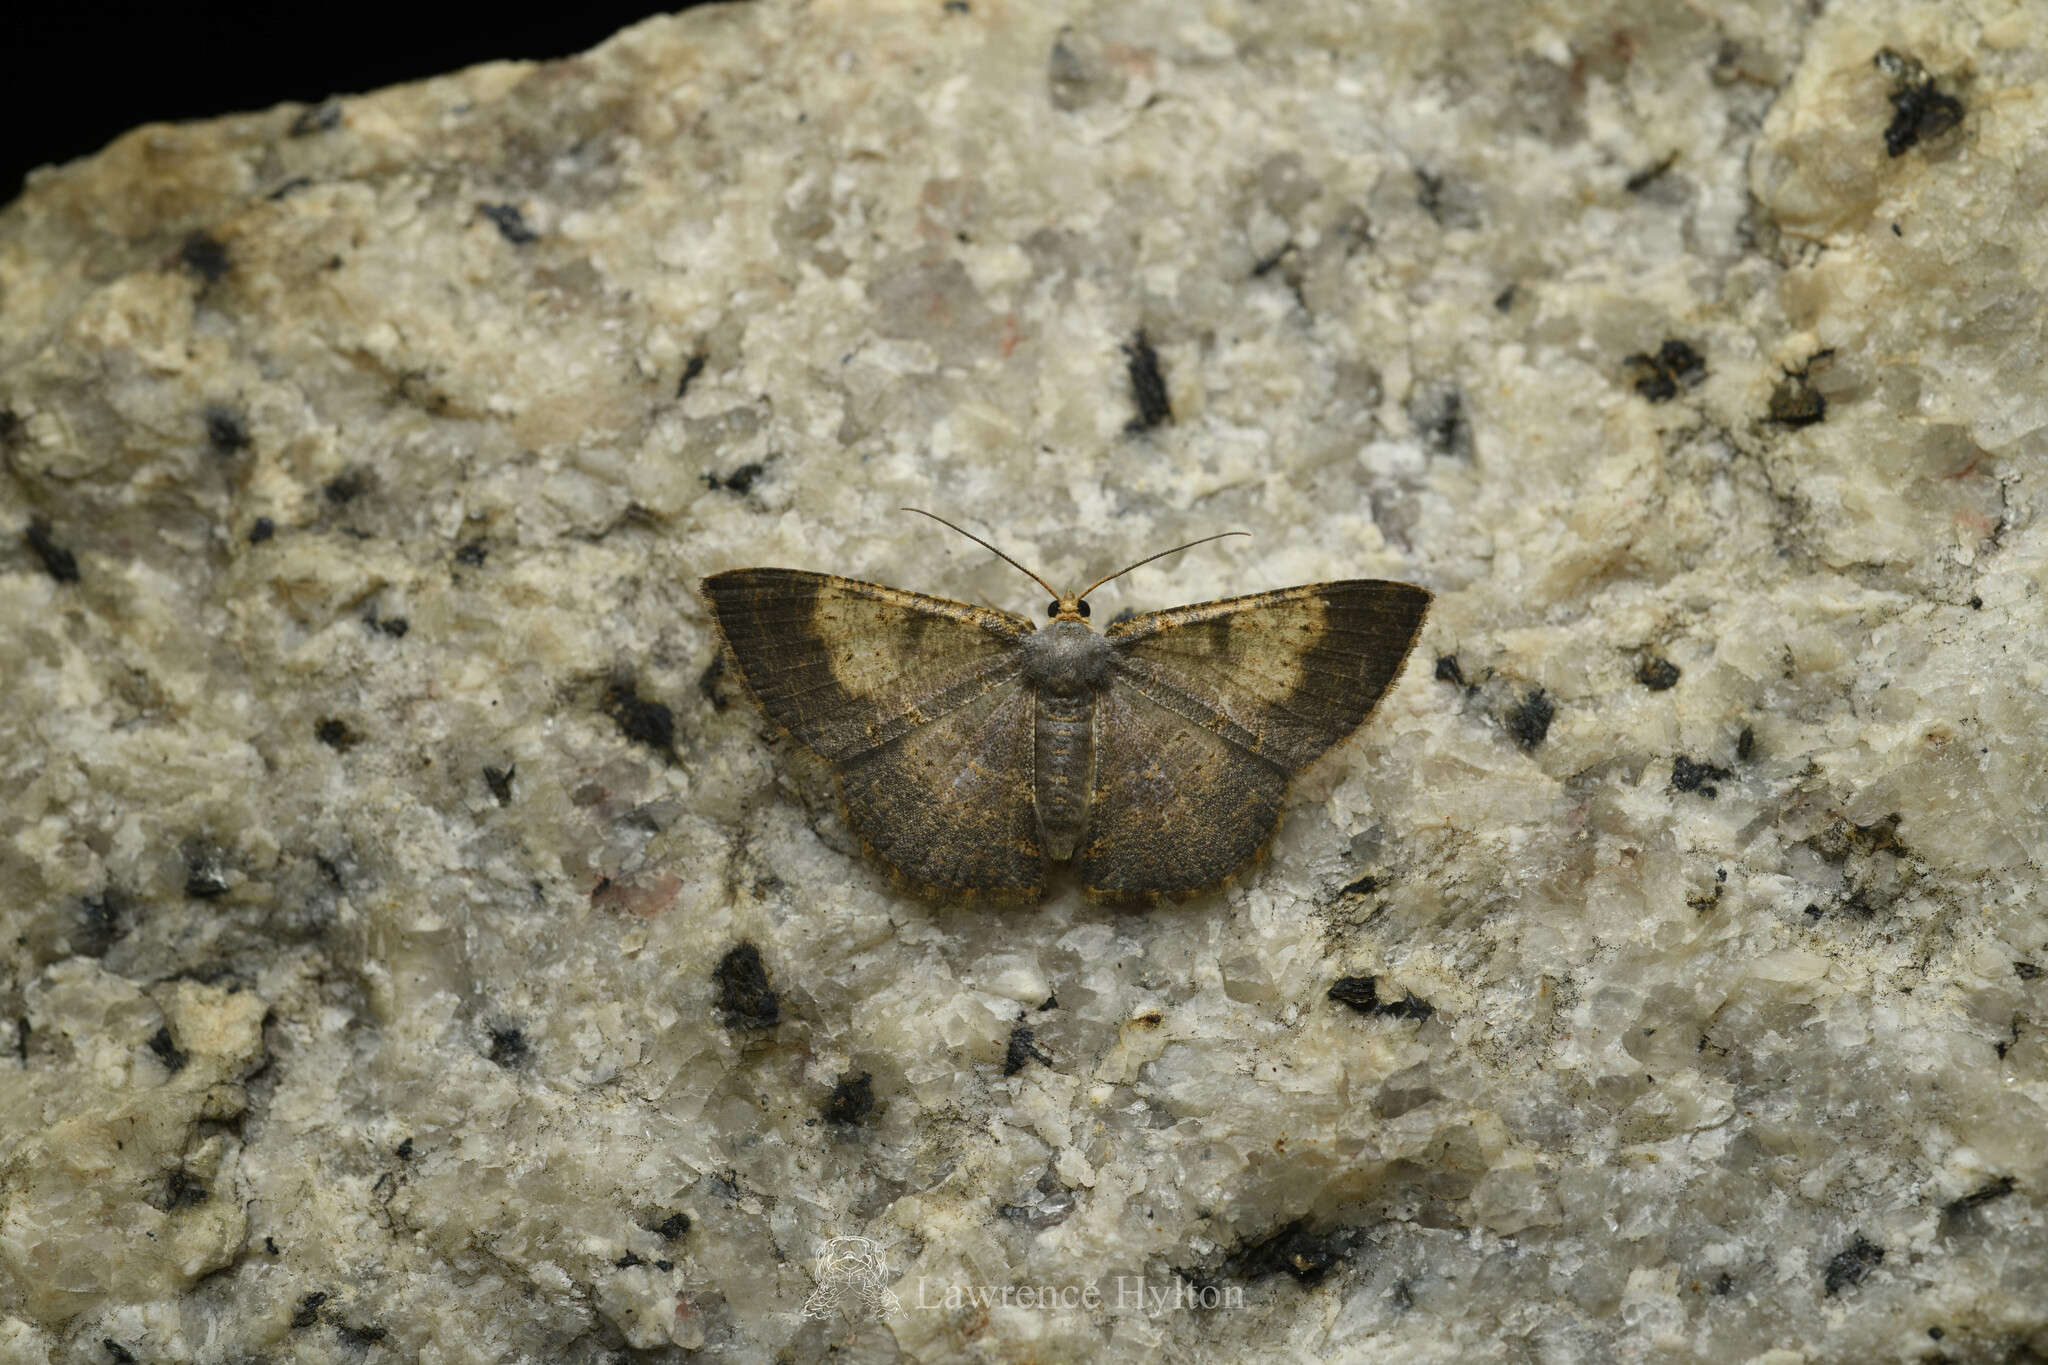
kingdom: Animalia
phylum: Arthropoda
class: Insecta
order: Lepidoptera
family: Geometridae
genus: Peratophyga
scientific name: Peratophyga crista
